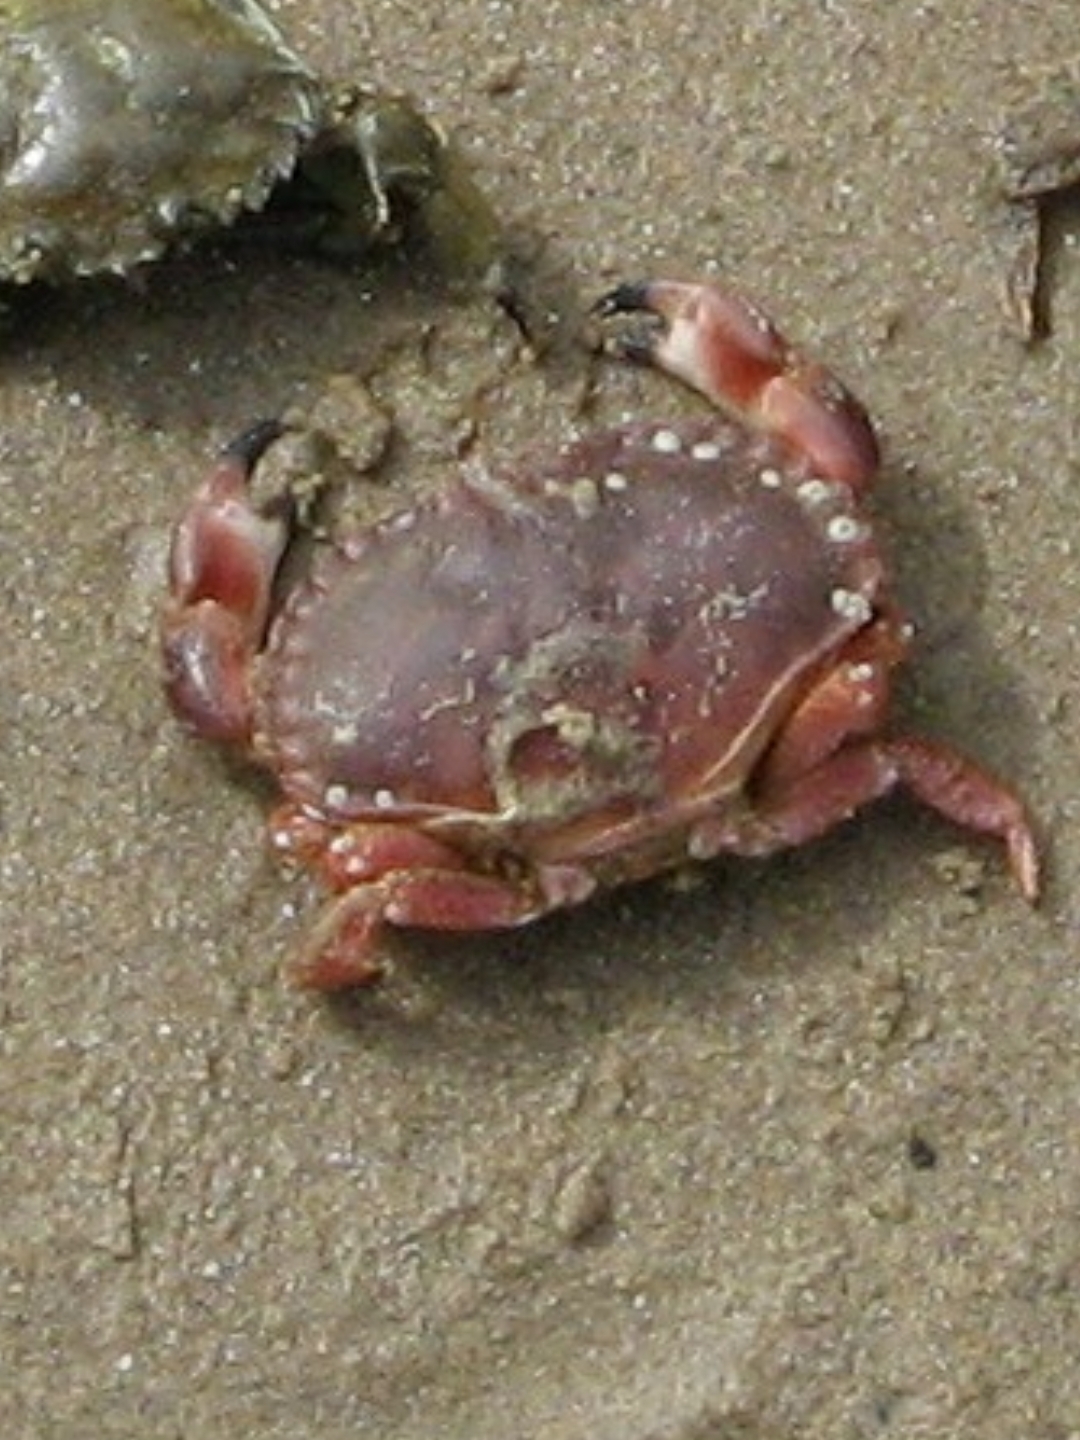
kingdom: Animalia
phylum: Arthropoda
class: Malacostraca
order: Decapoda
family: Cancridae
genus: Cancer
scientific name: Cancer pagurus
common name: Edible crab
